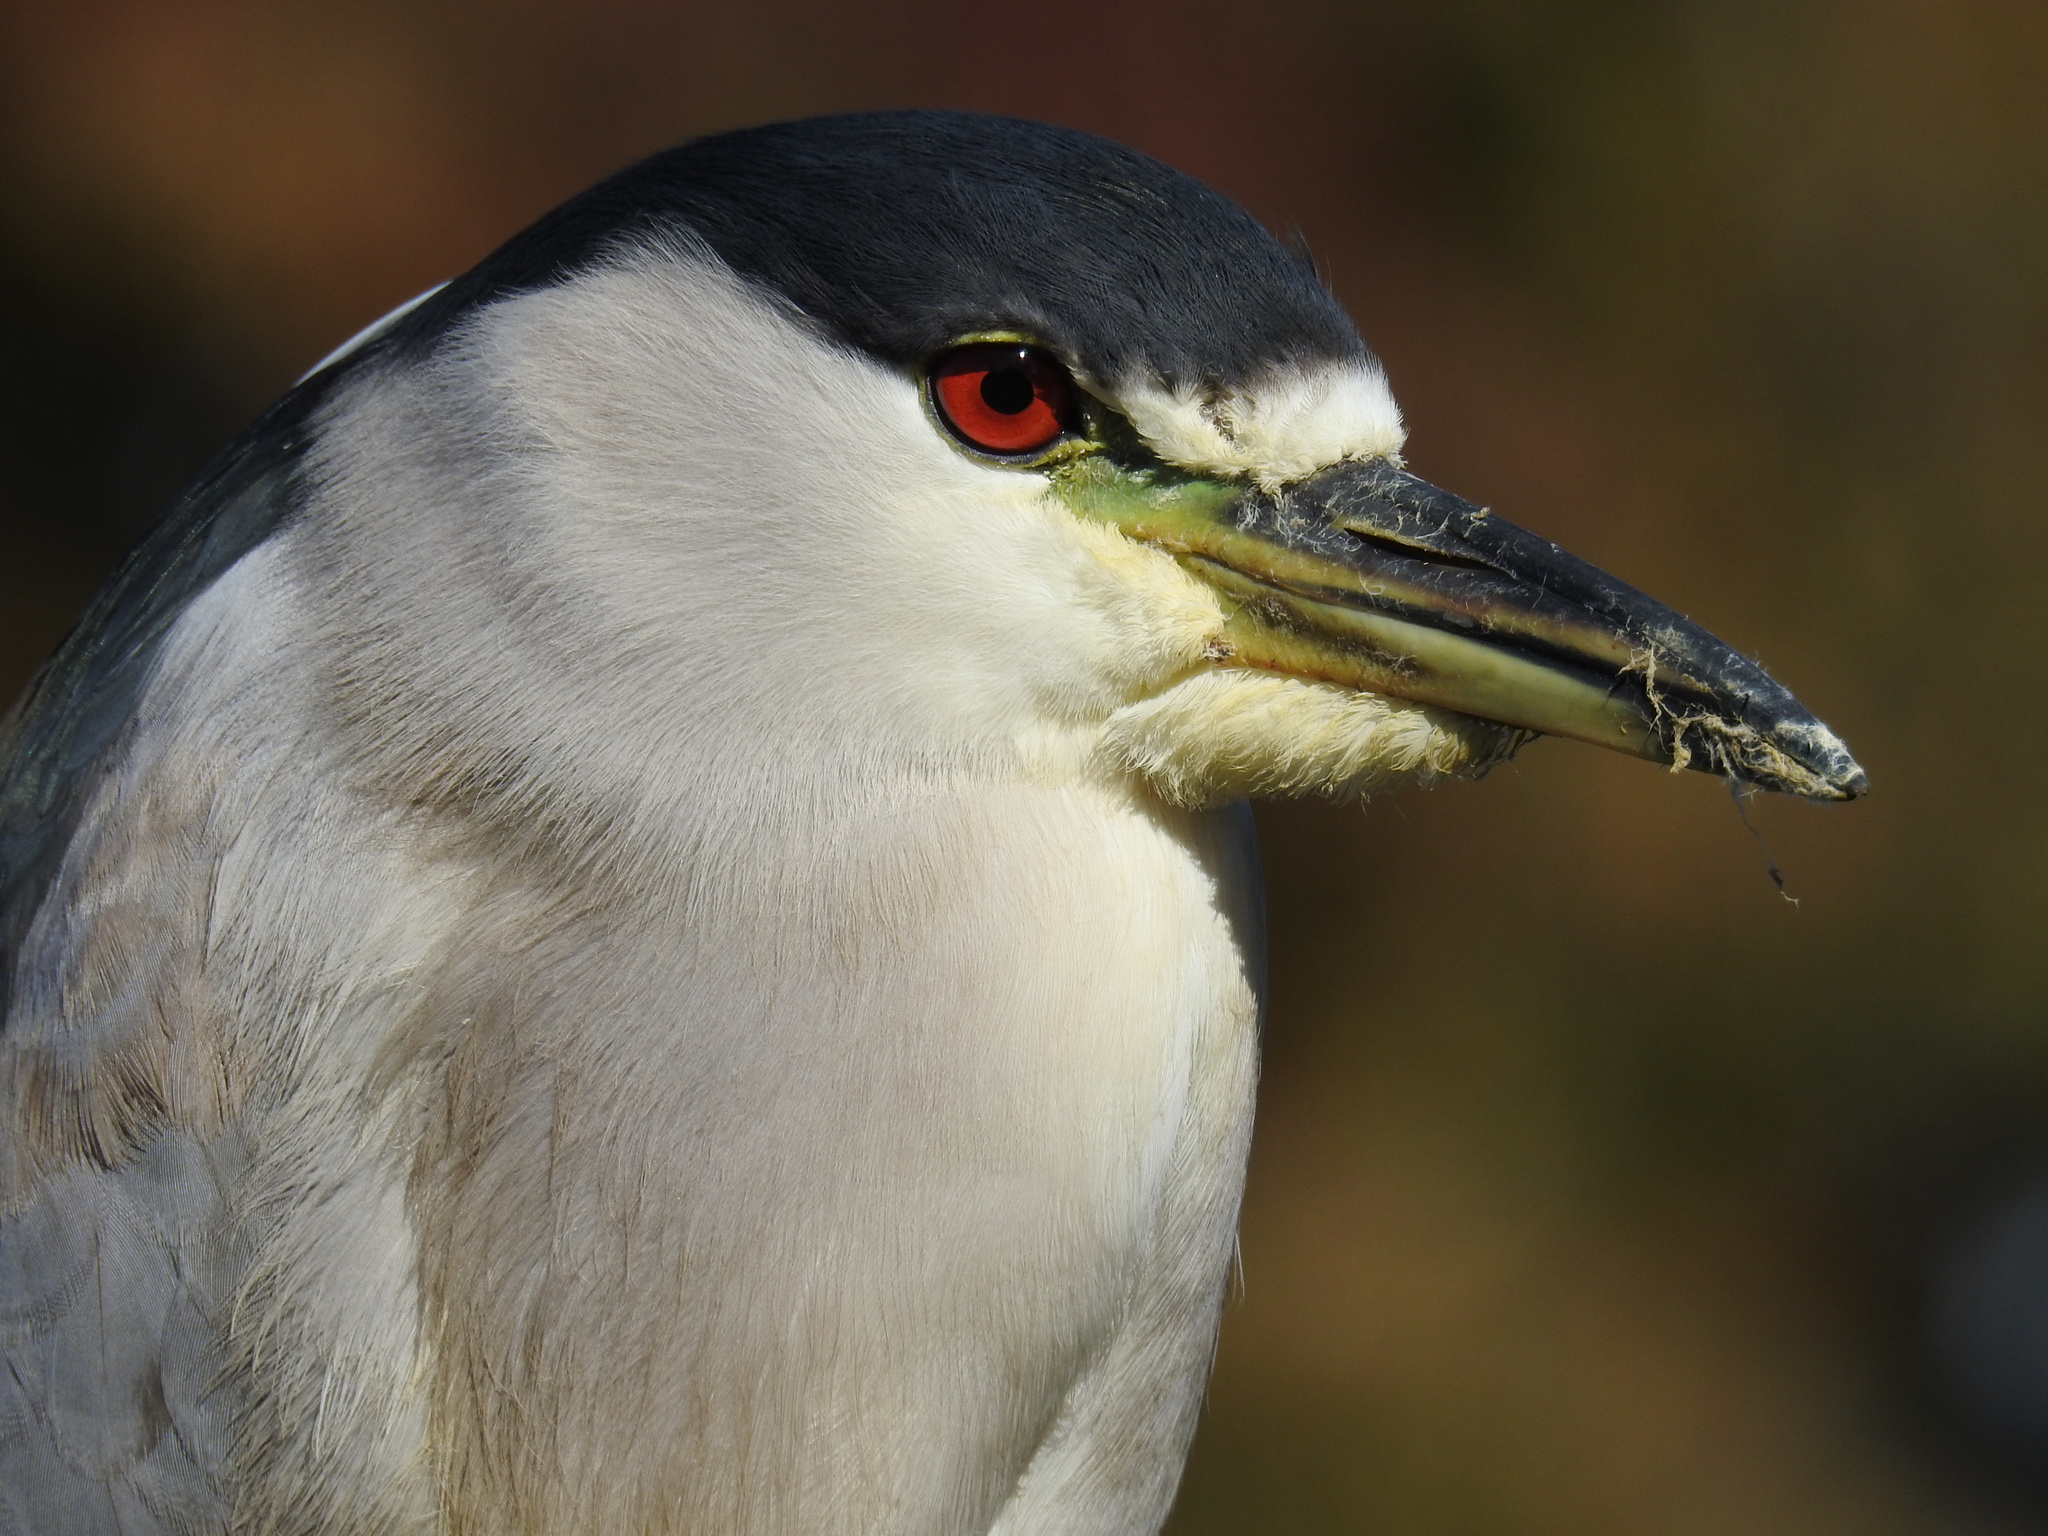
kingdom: Animalia
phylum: Chordata
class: Aves
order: Pelecaniformes
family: Ardeidae
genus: Nycticorax
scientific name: Nycticorax nycticorax
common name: Black-crowned night heron
